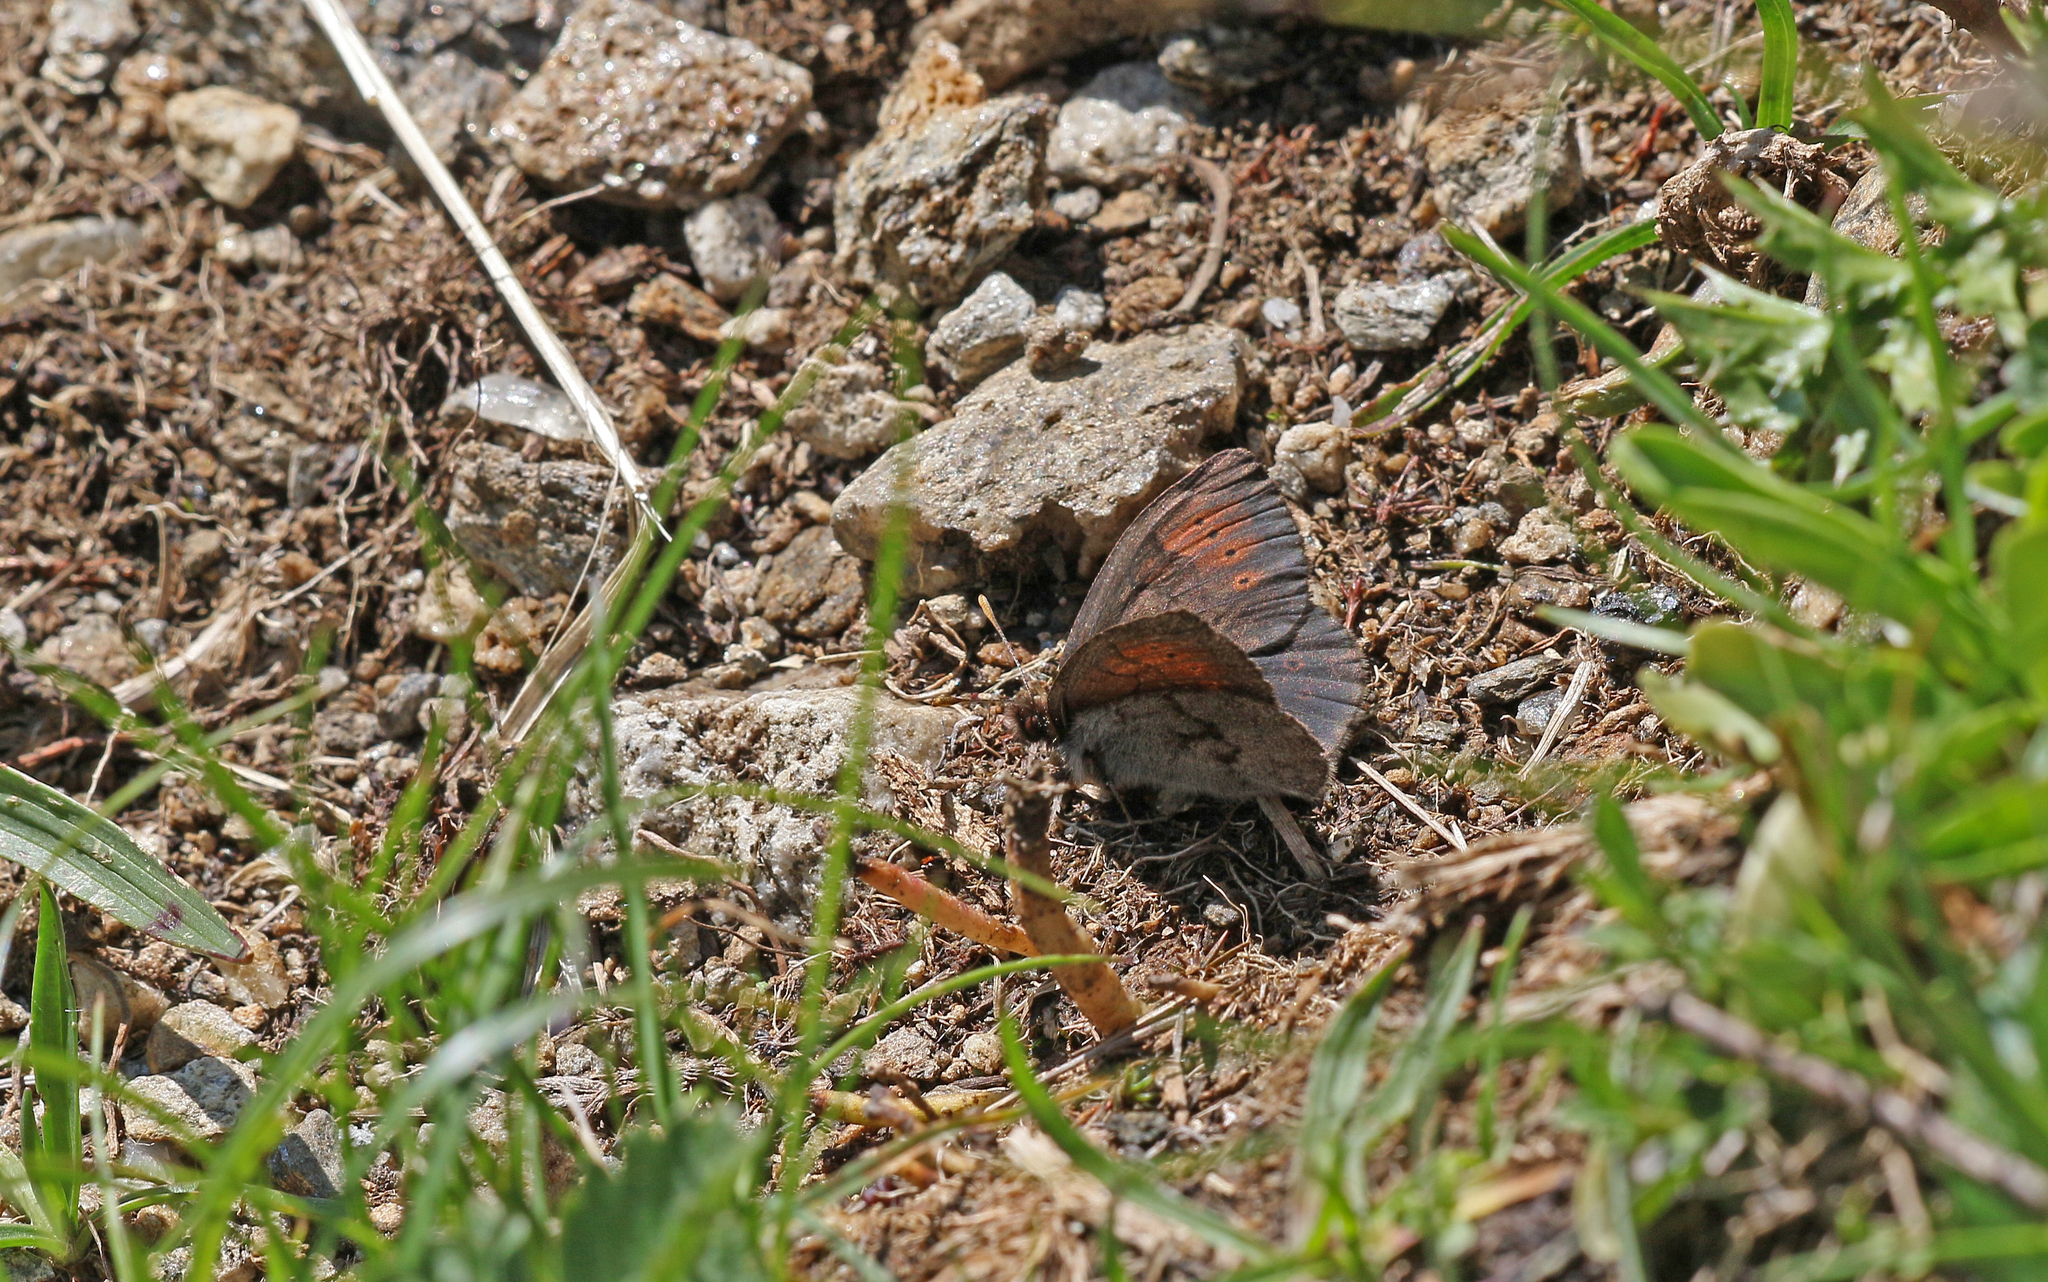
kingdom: Animalia
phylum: Arthropoda
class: Insecta
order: Lepidoptera
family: Nymphalidae
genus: Erebia
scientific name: Erebia pandrose
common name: Dewy ringlet
